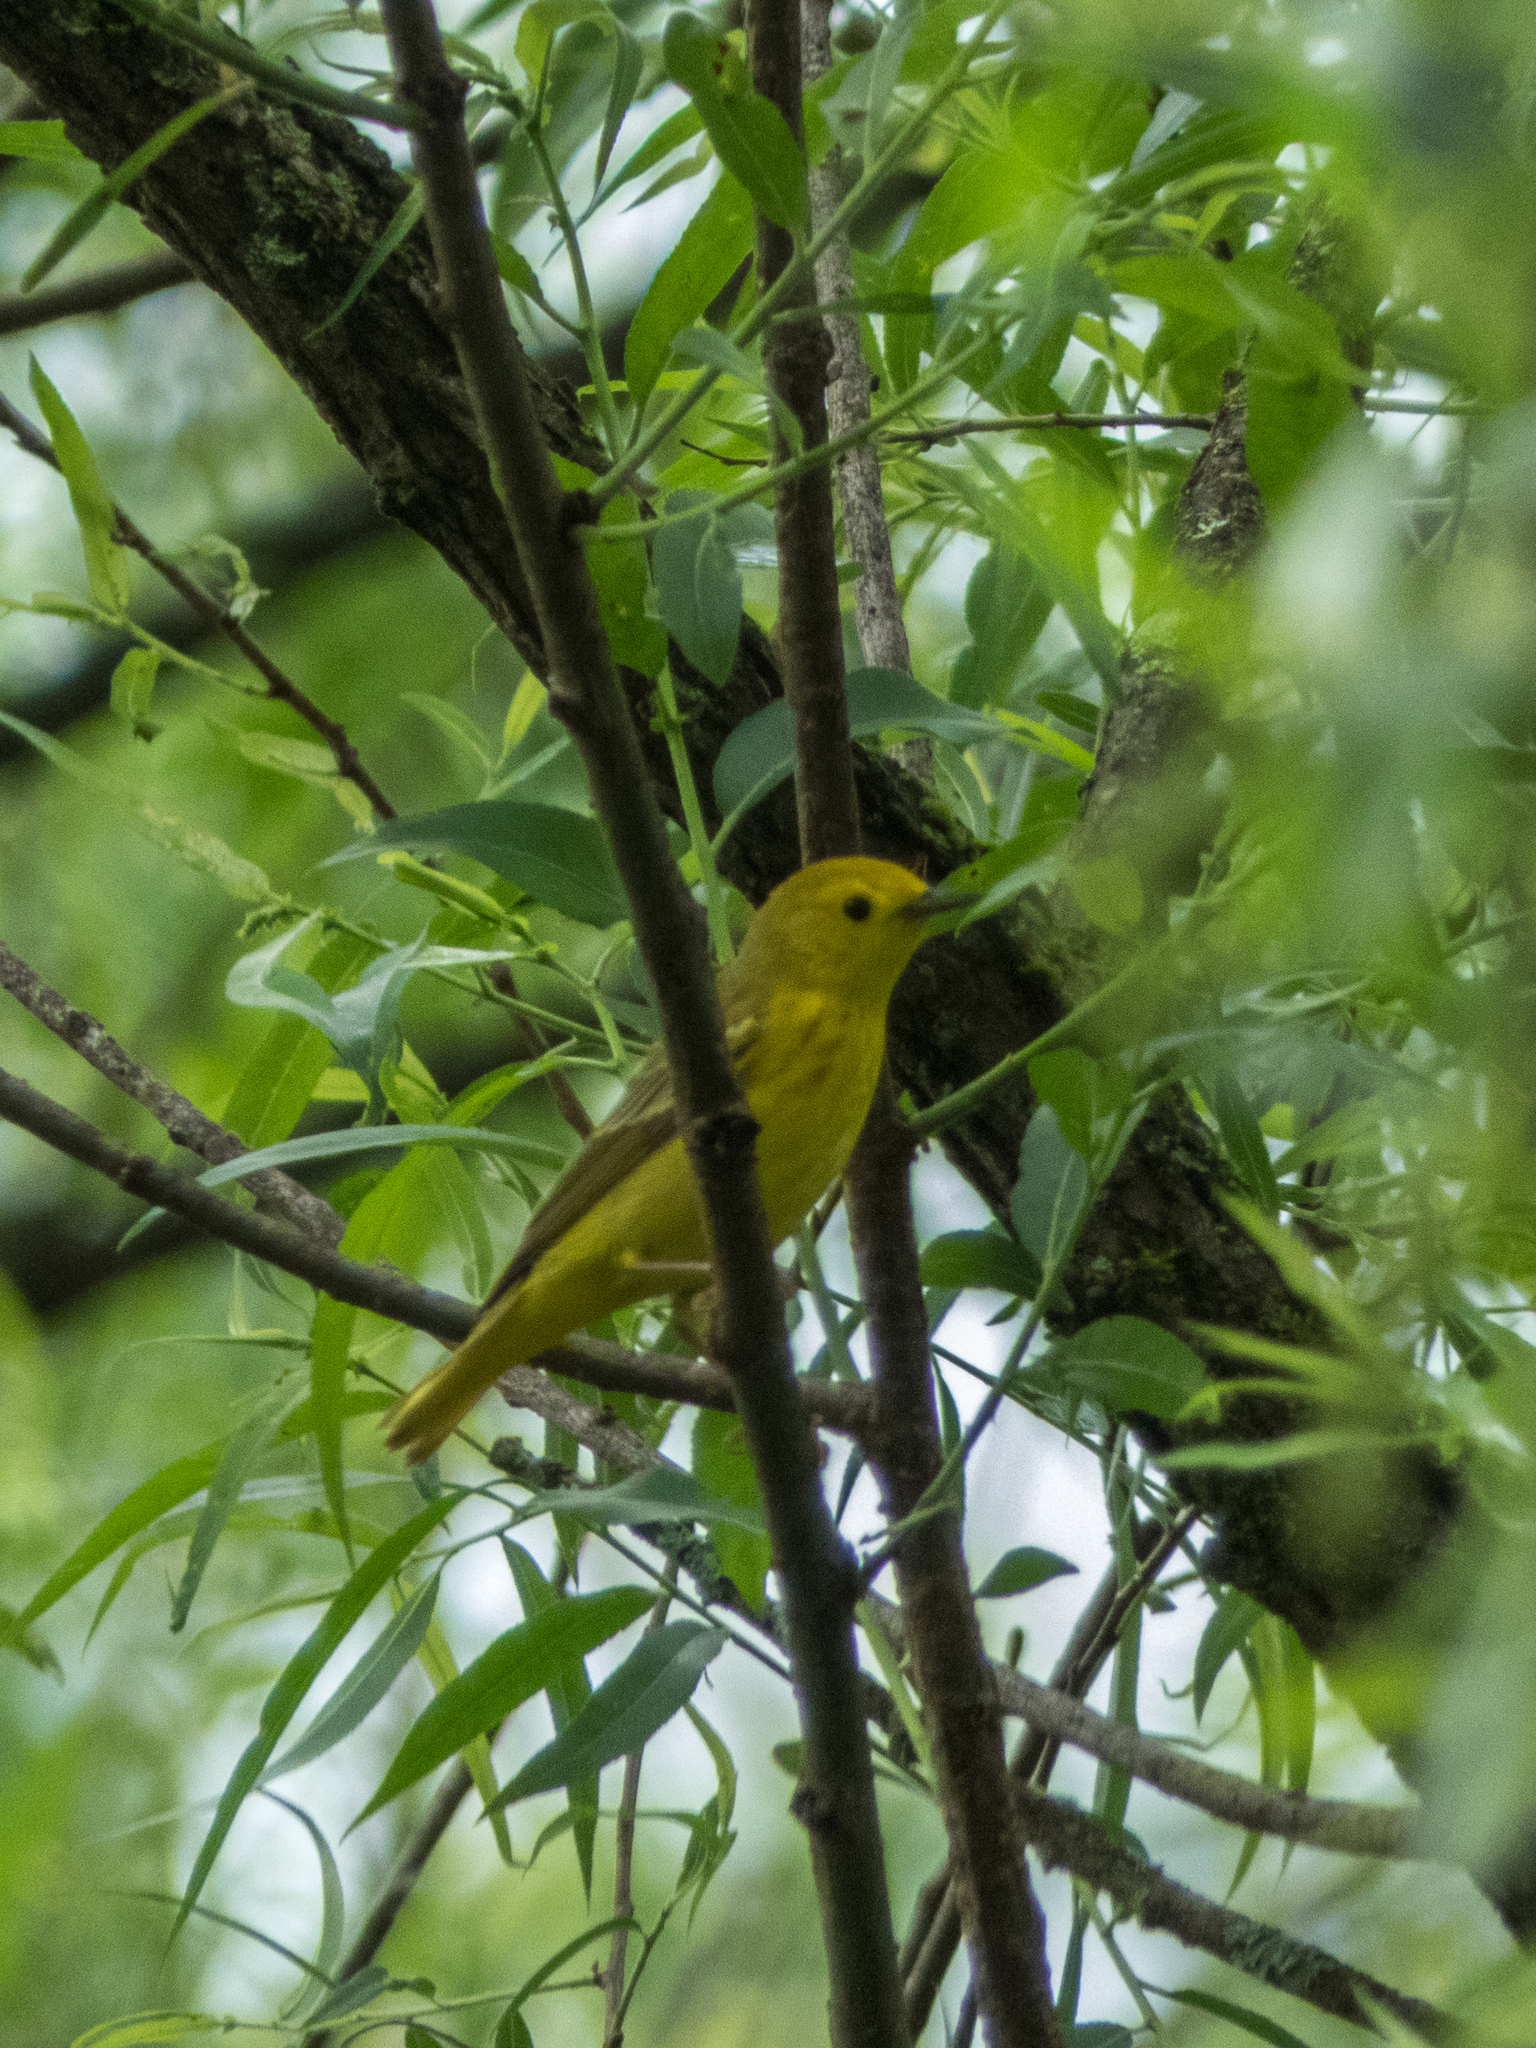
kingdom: Animalia
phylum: Chordata
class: Aves
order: Passeriformes
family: Parulidae
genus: Setophaga
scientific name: Setophaga petechia
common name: Yellow warbler
